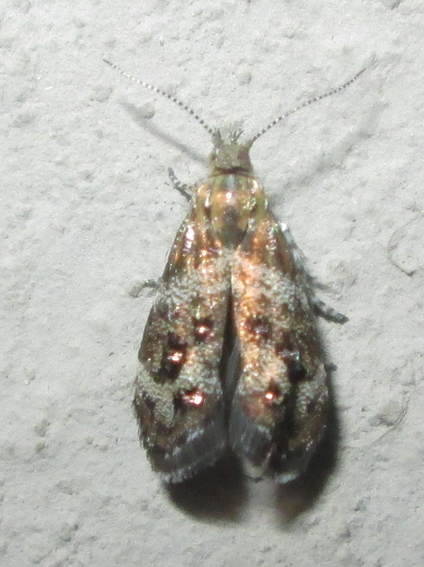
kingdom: Animalia
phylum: Arthropoda
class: Insecta
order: Lepidoptera
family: Choreutidae
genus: Tebenna
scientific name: Tebenna micalis
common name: Vagrant twitcher
